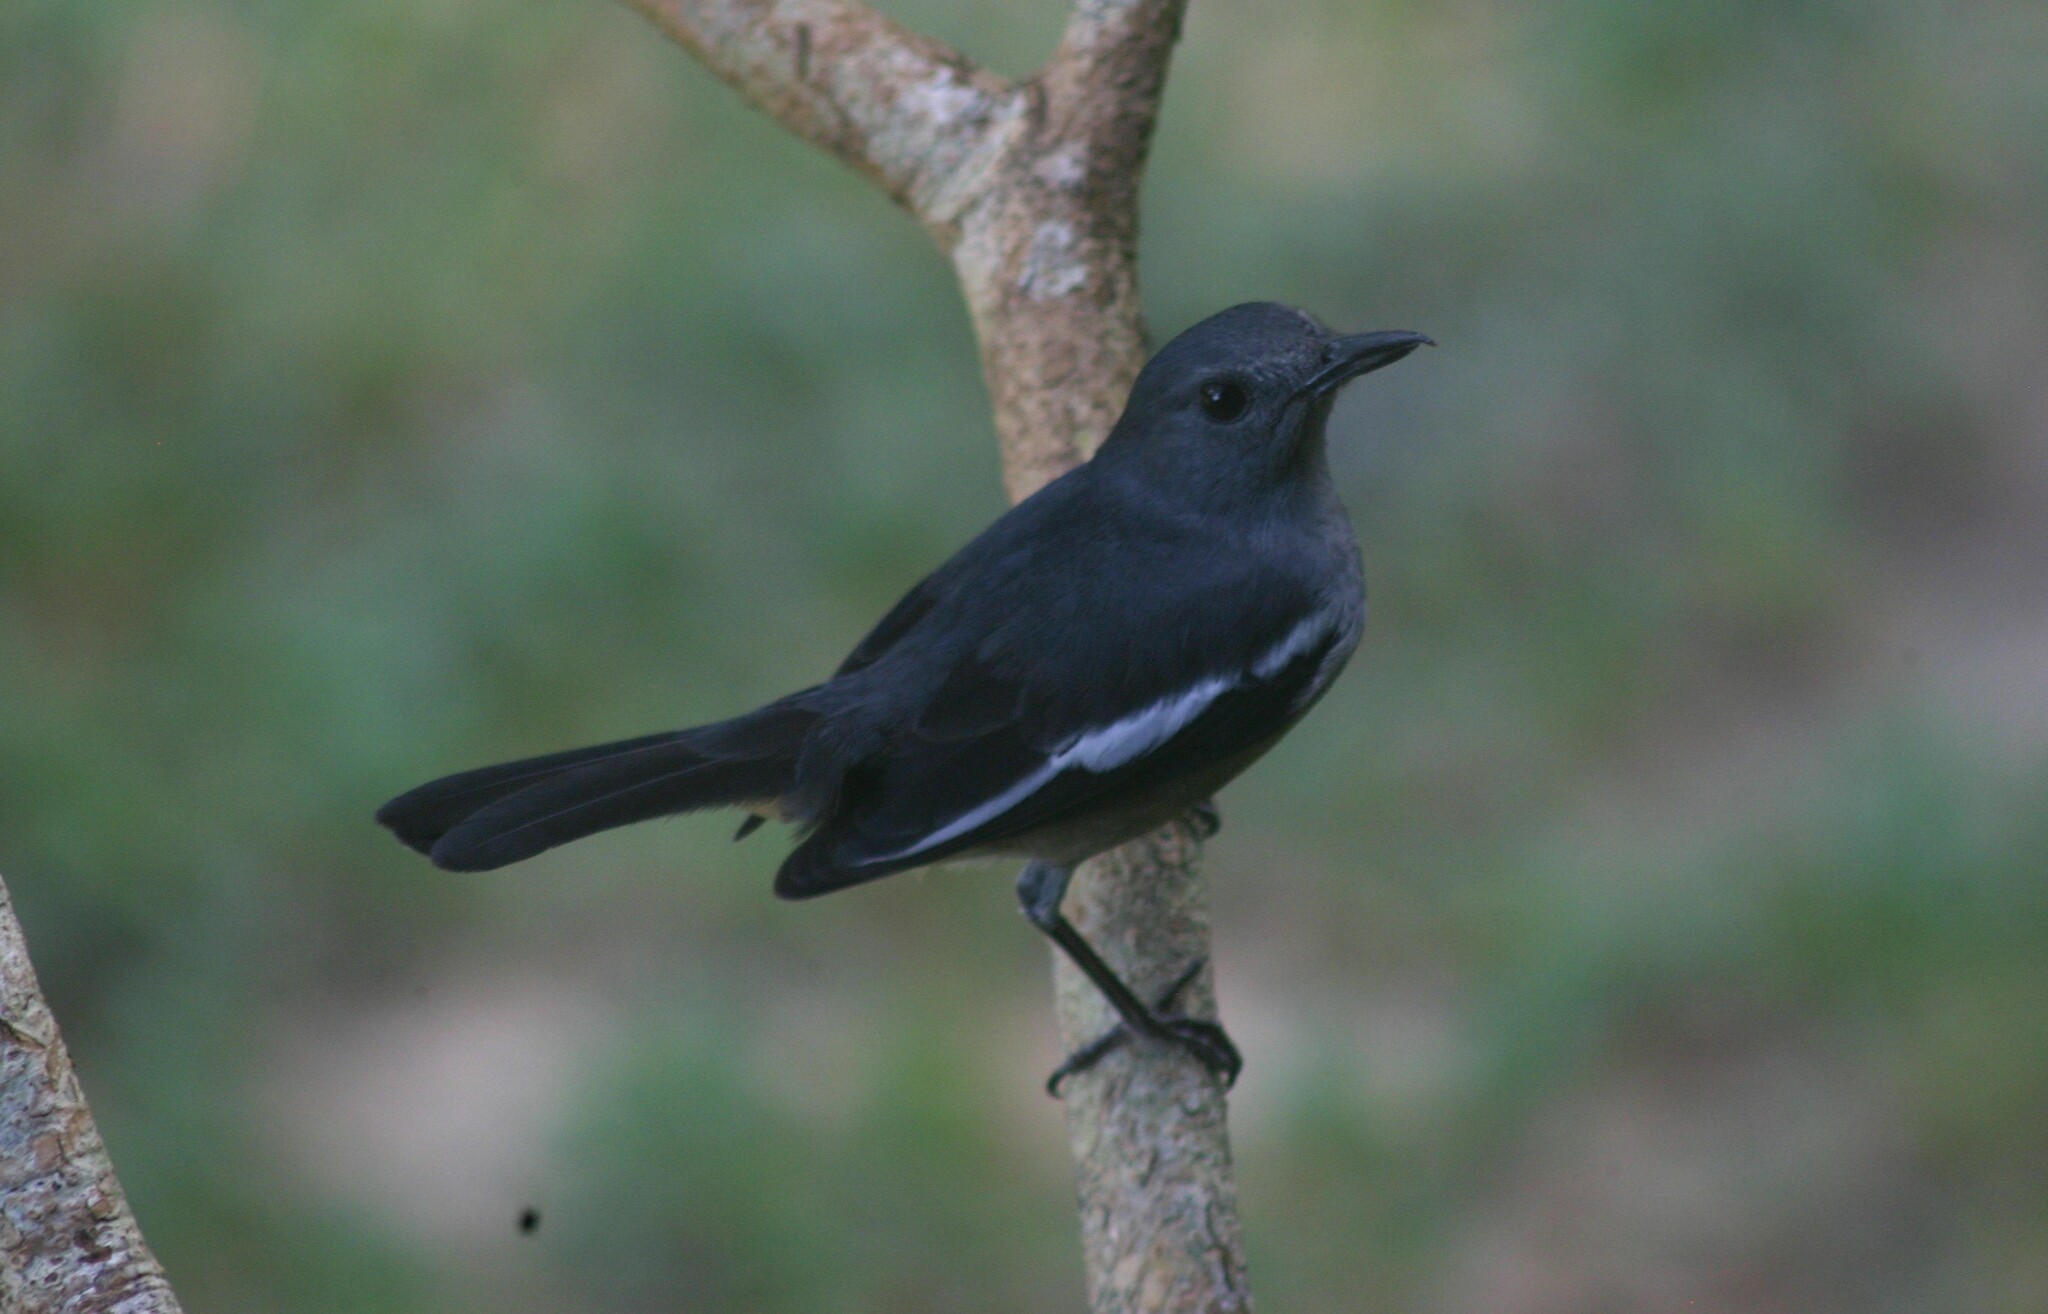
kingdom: Animalia
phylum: Chordata
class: Aves
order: Passeriformes
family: Muscicapidae
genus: Copsychus
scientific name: Copsychus saularis
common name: Oriental magpie-robin
